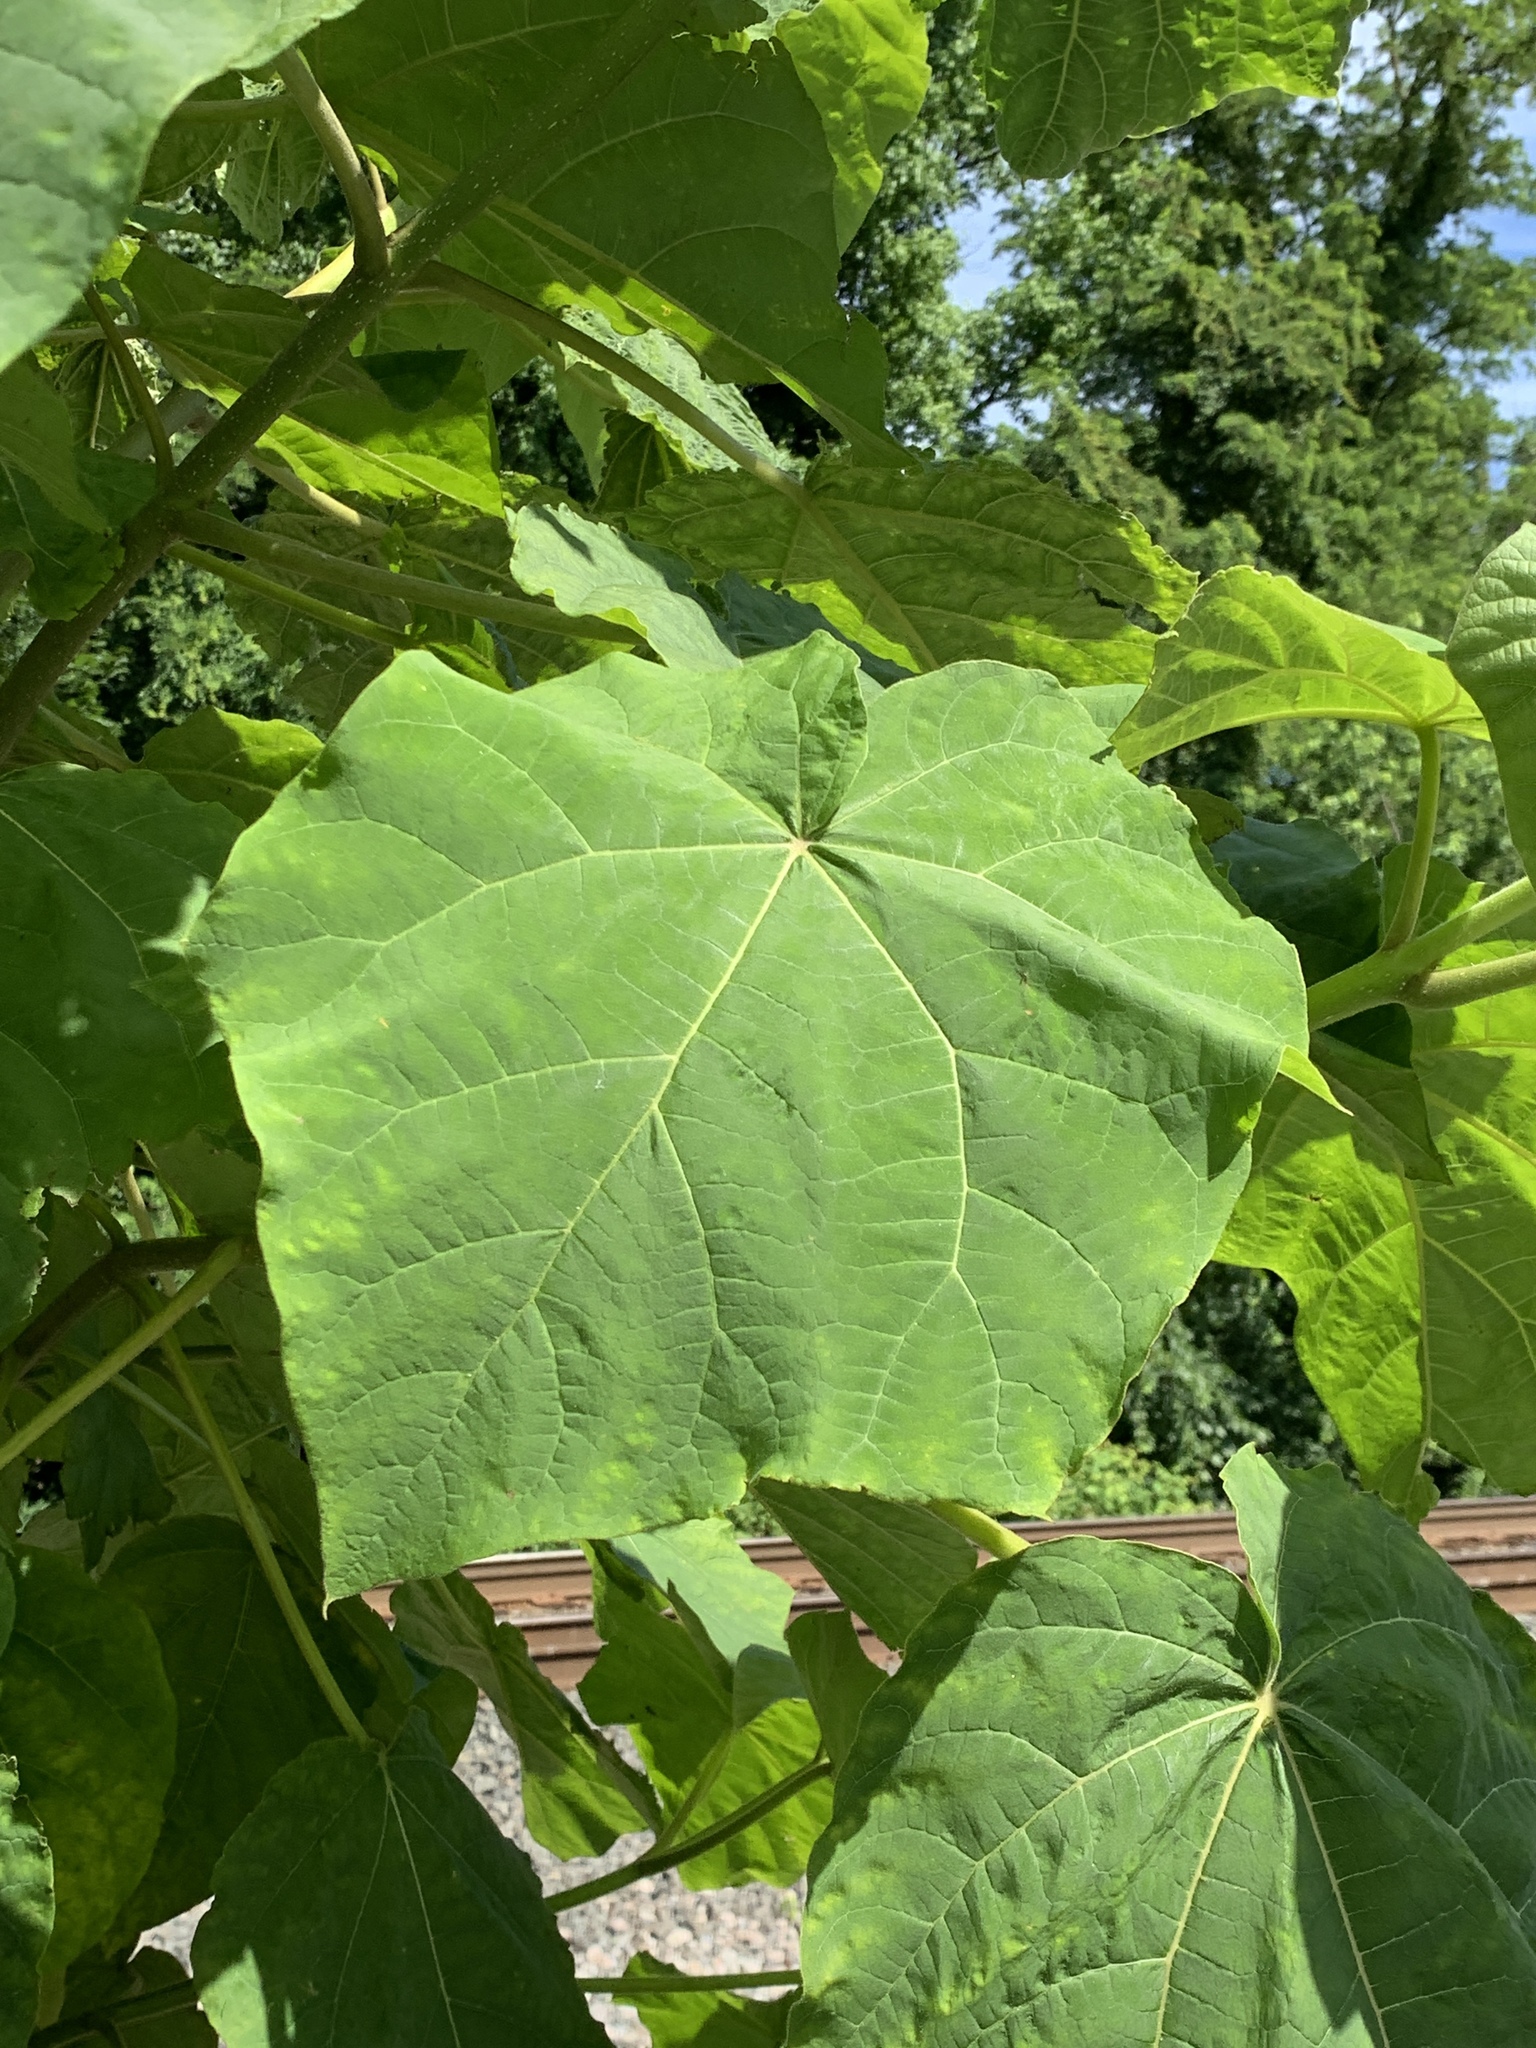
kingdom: Plantae
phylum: Tracheophyta
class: Magnoliopsida
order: Lamiales
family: Paulowniaceae
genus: Paulownia
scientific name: Paulownia tomentosa
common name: Foxglove-tree
